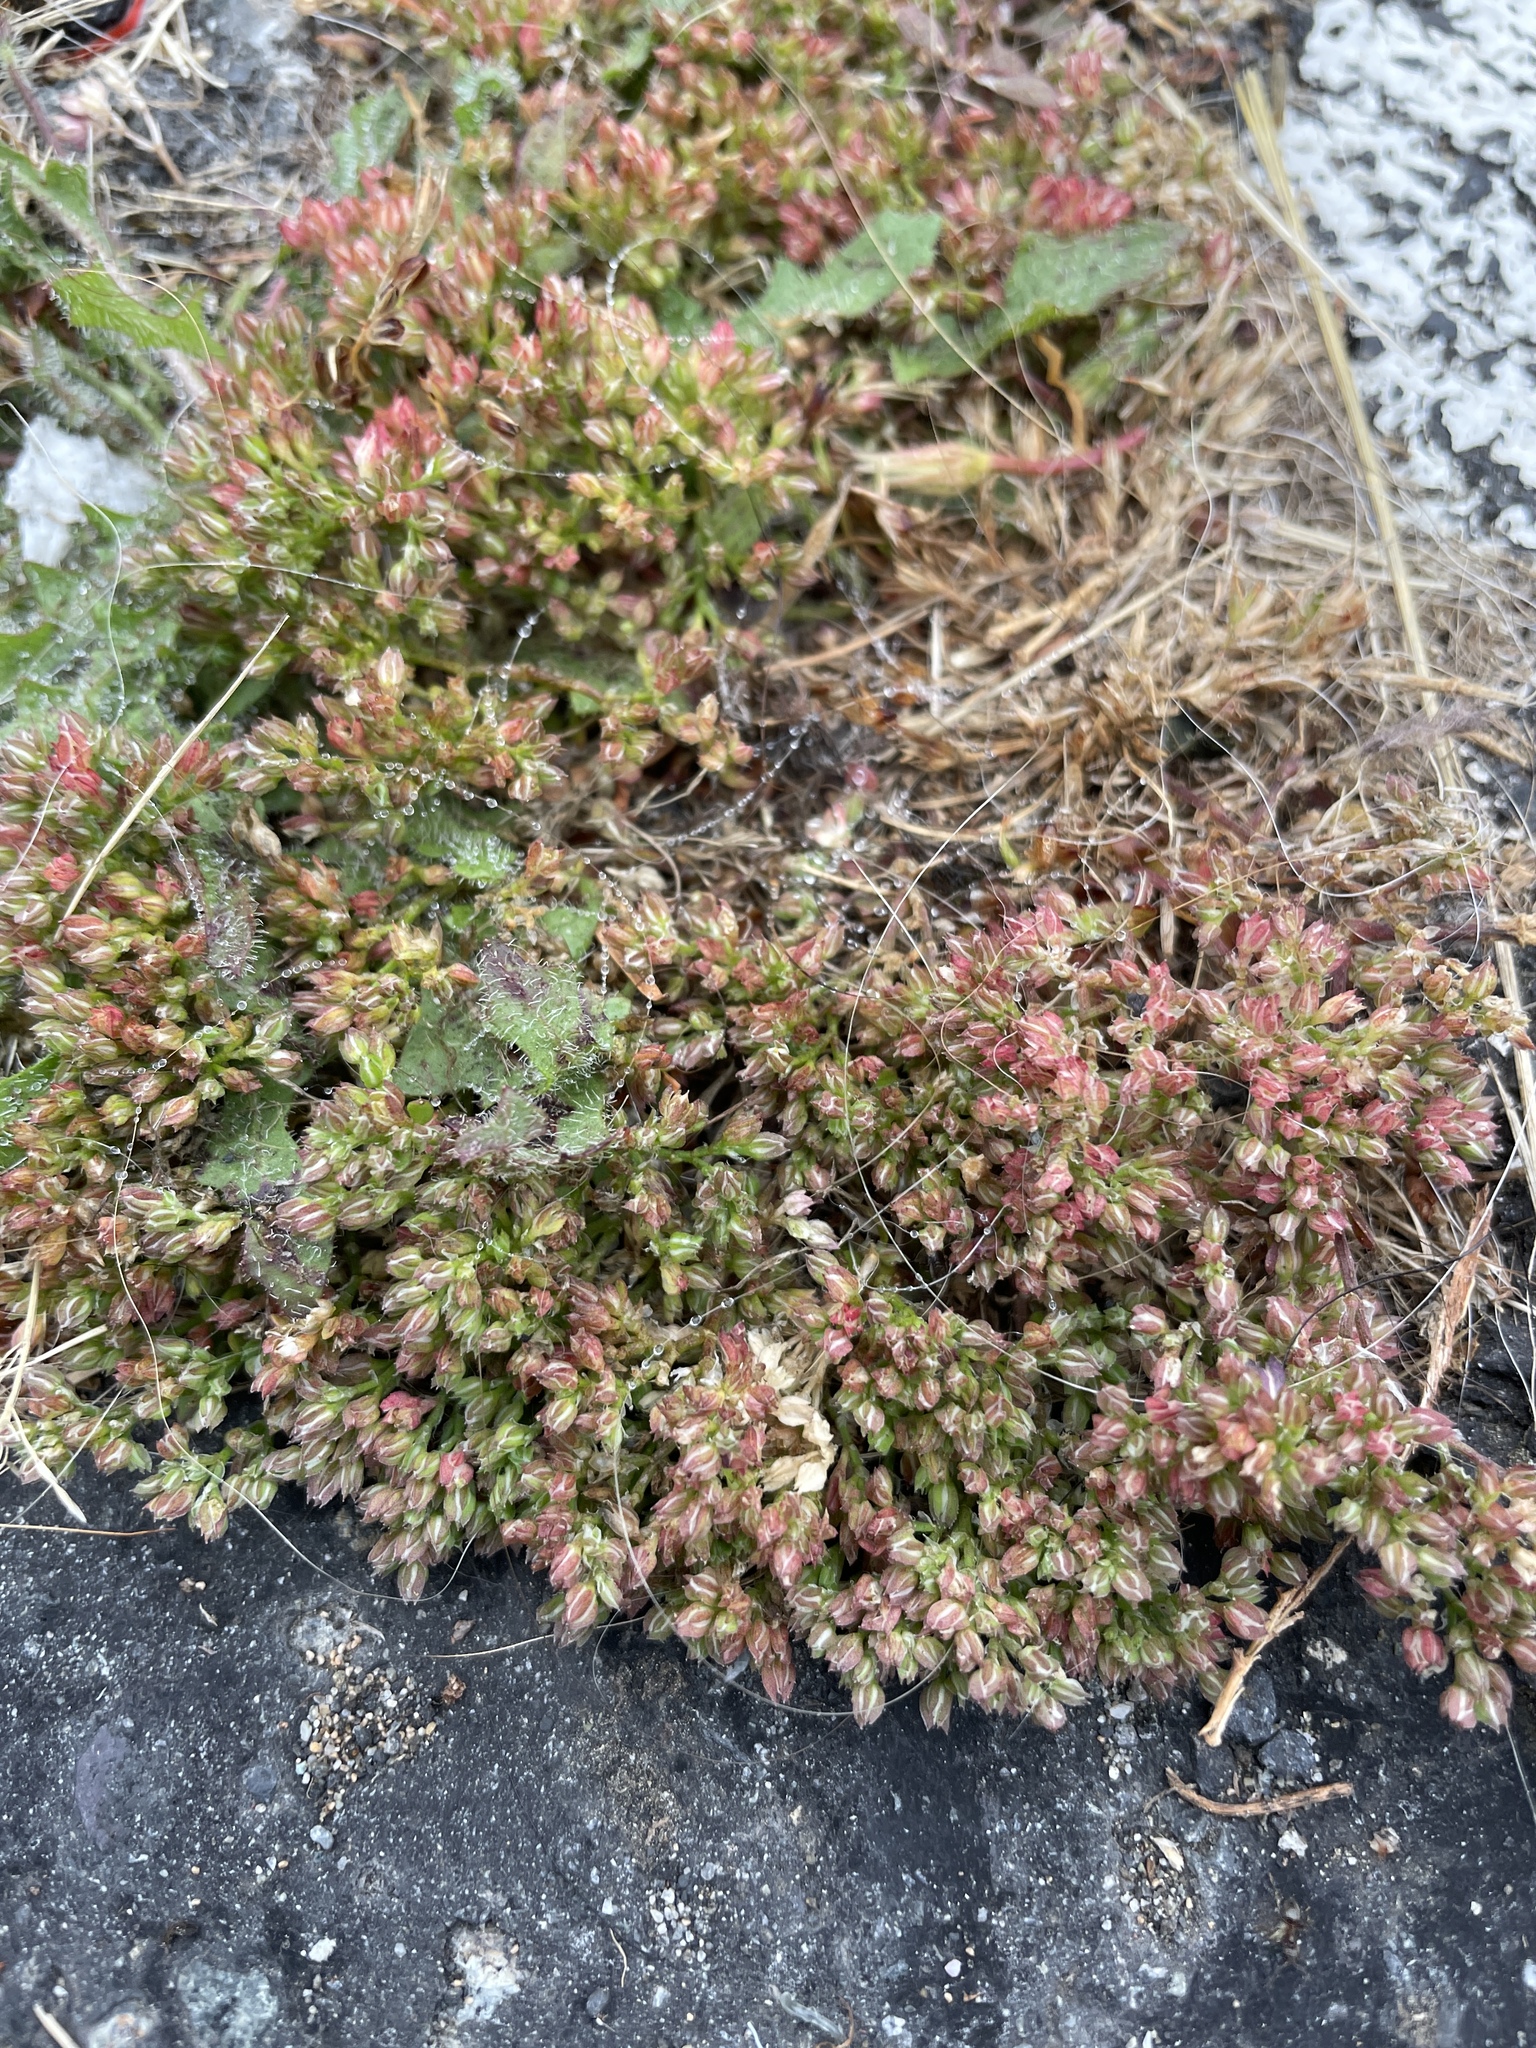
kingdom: Plantae
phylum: Tracheophyta
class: Magnoliopsida
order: Caryophyllales
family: Caryophyllaceae
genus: Polycarpon
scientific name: Polycarpon tetraphyllum
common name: Four-leaved all-seed
